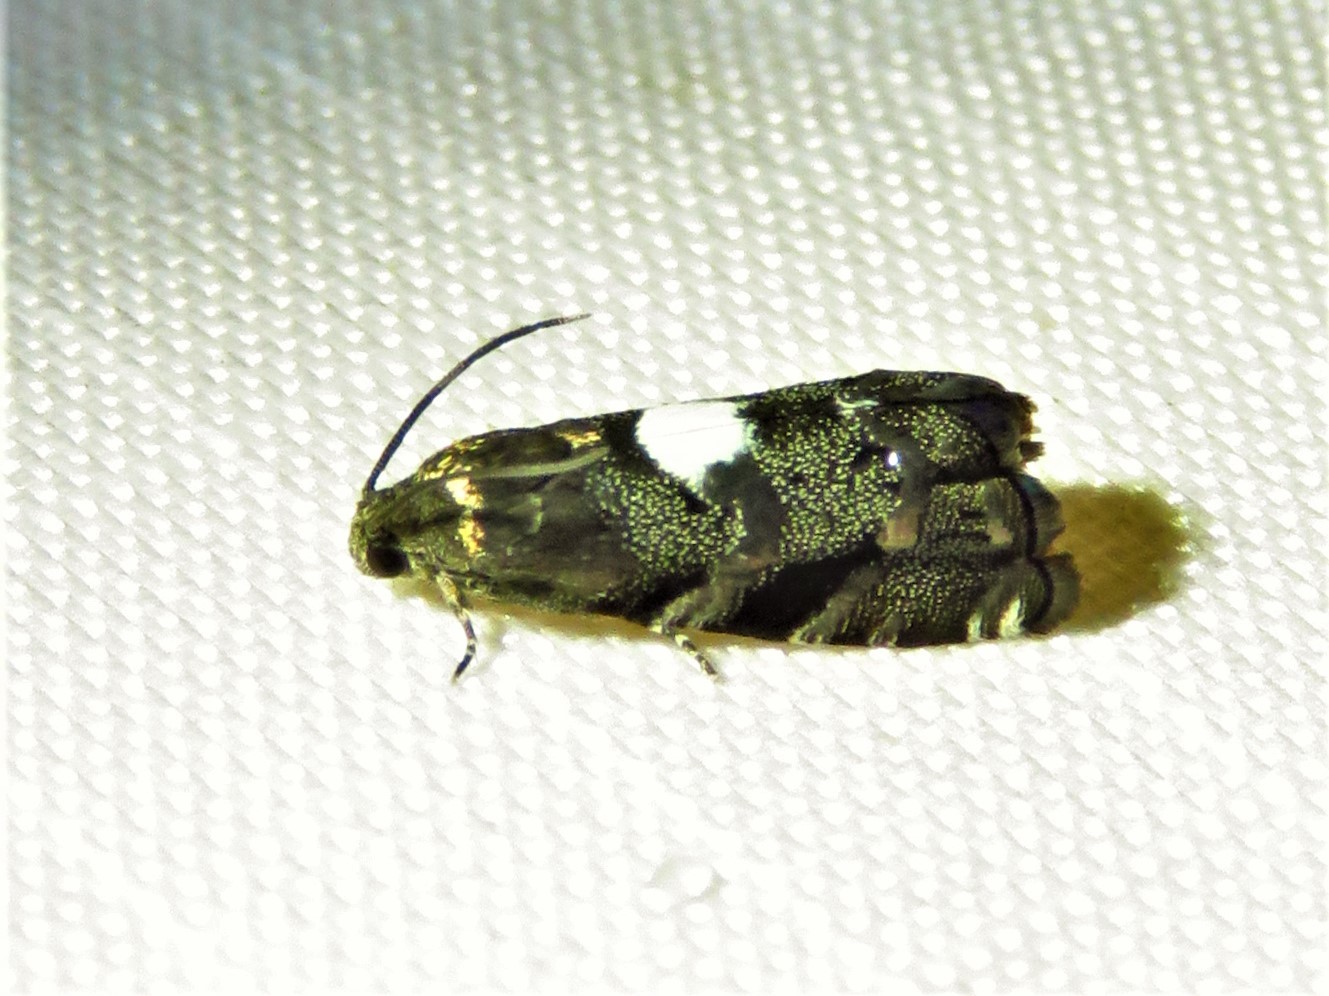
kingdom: Animalia
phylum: Arthropoda
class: Insecta
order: Lepidoptera
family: Tortricidae
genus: Cydia
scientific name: Cydia albimaculana
